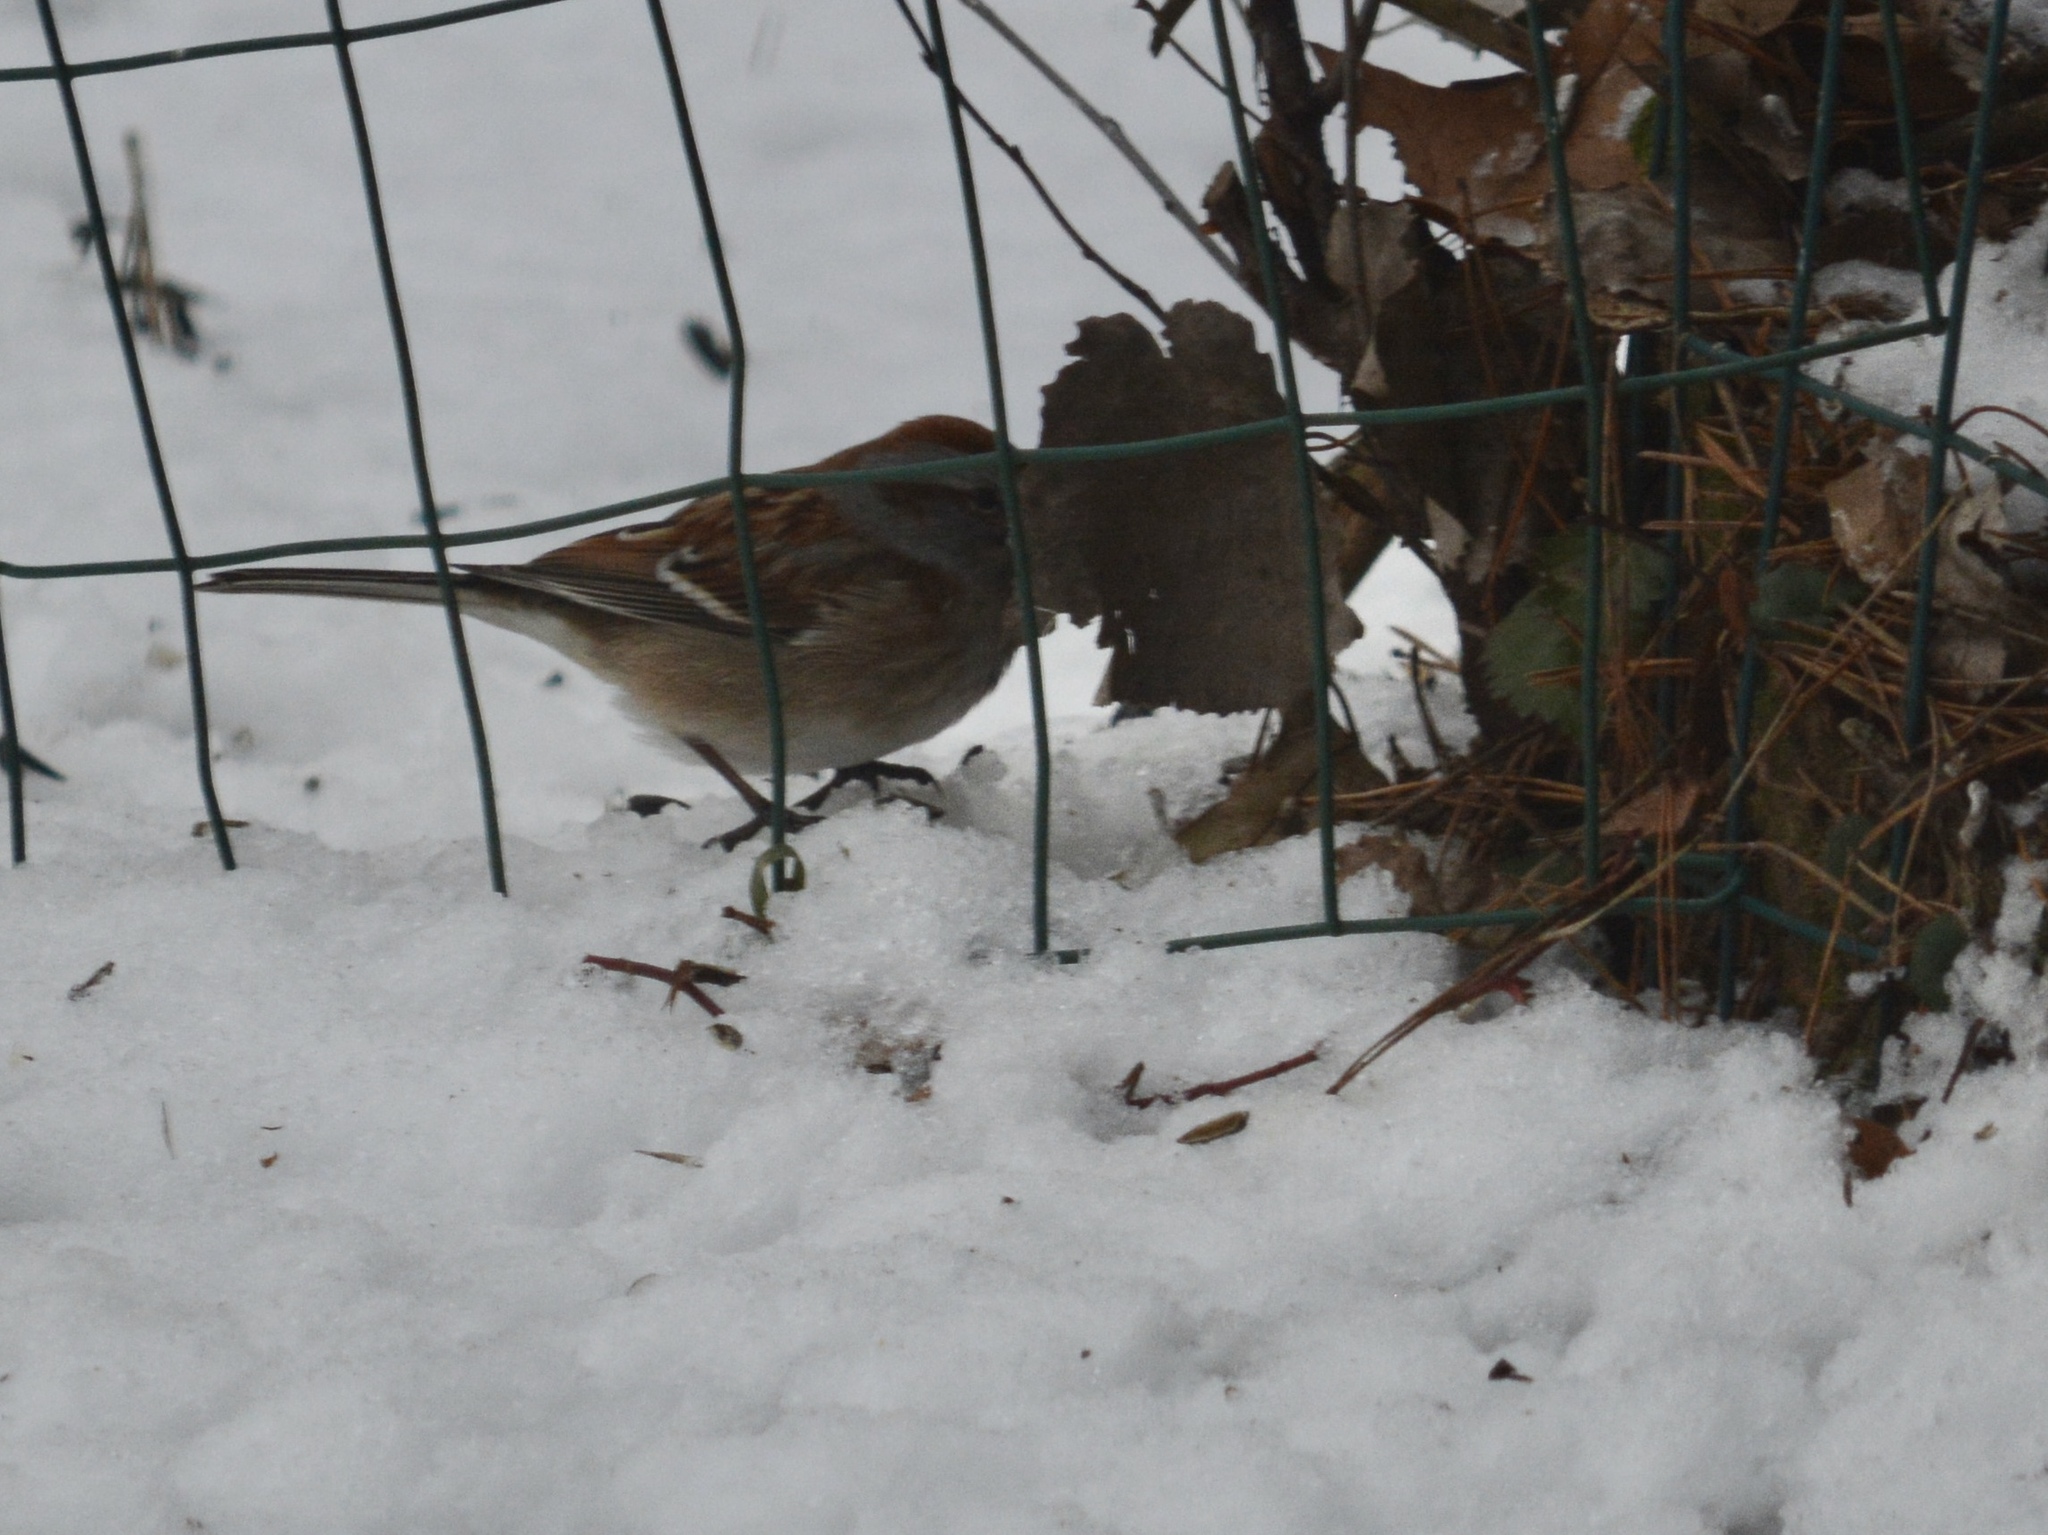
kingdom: Animalia
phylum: Chordata
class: Aves
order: Passeriformes
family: Passerellidae
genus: Spizelloides
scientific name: Spizelloides arborea
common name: American tree sparrow
